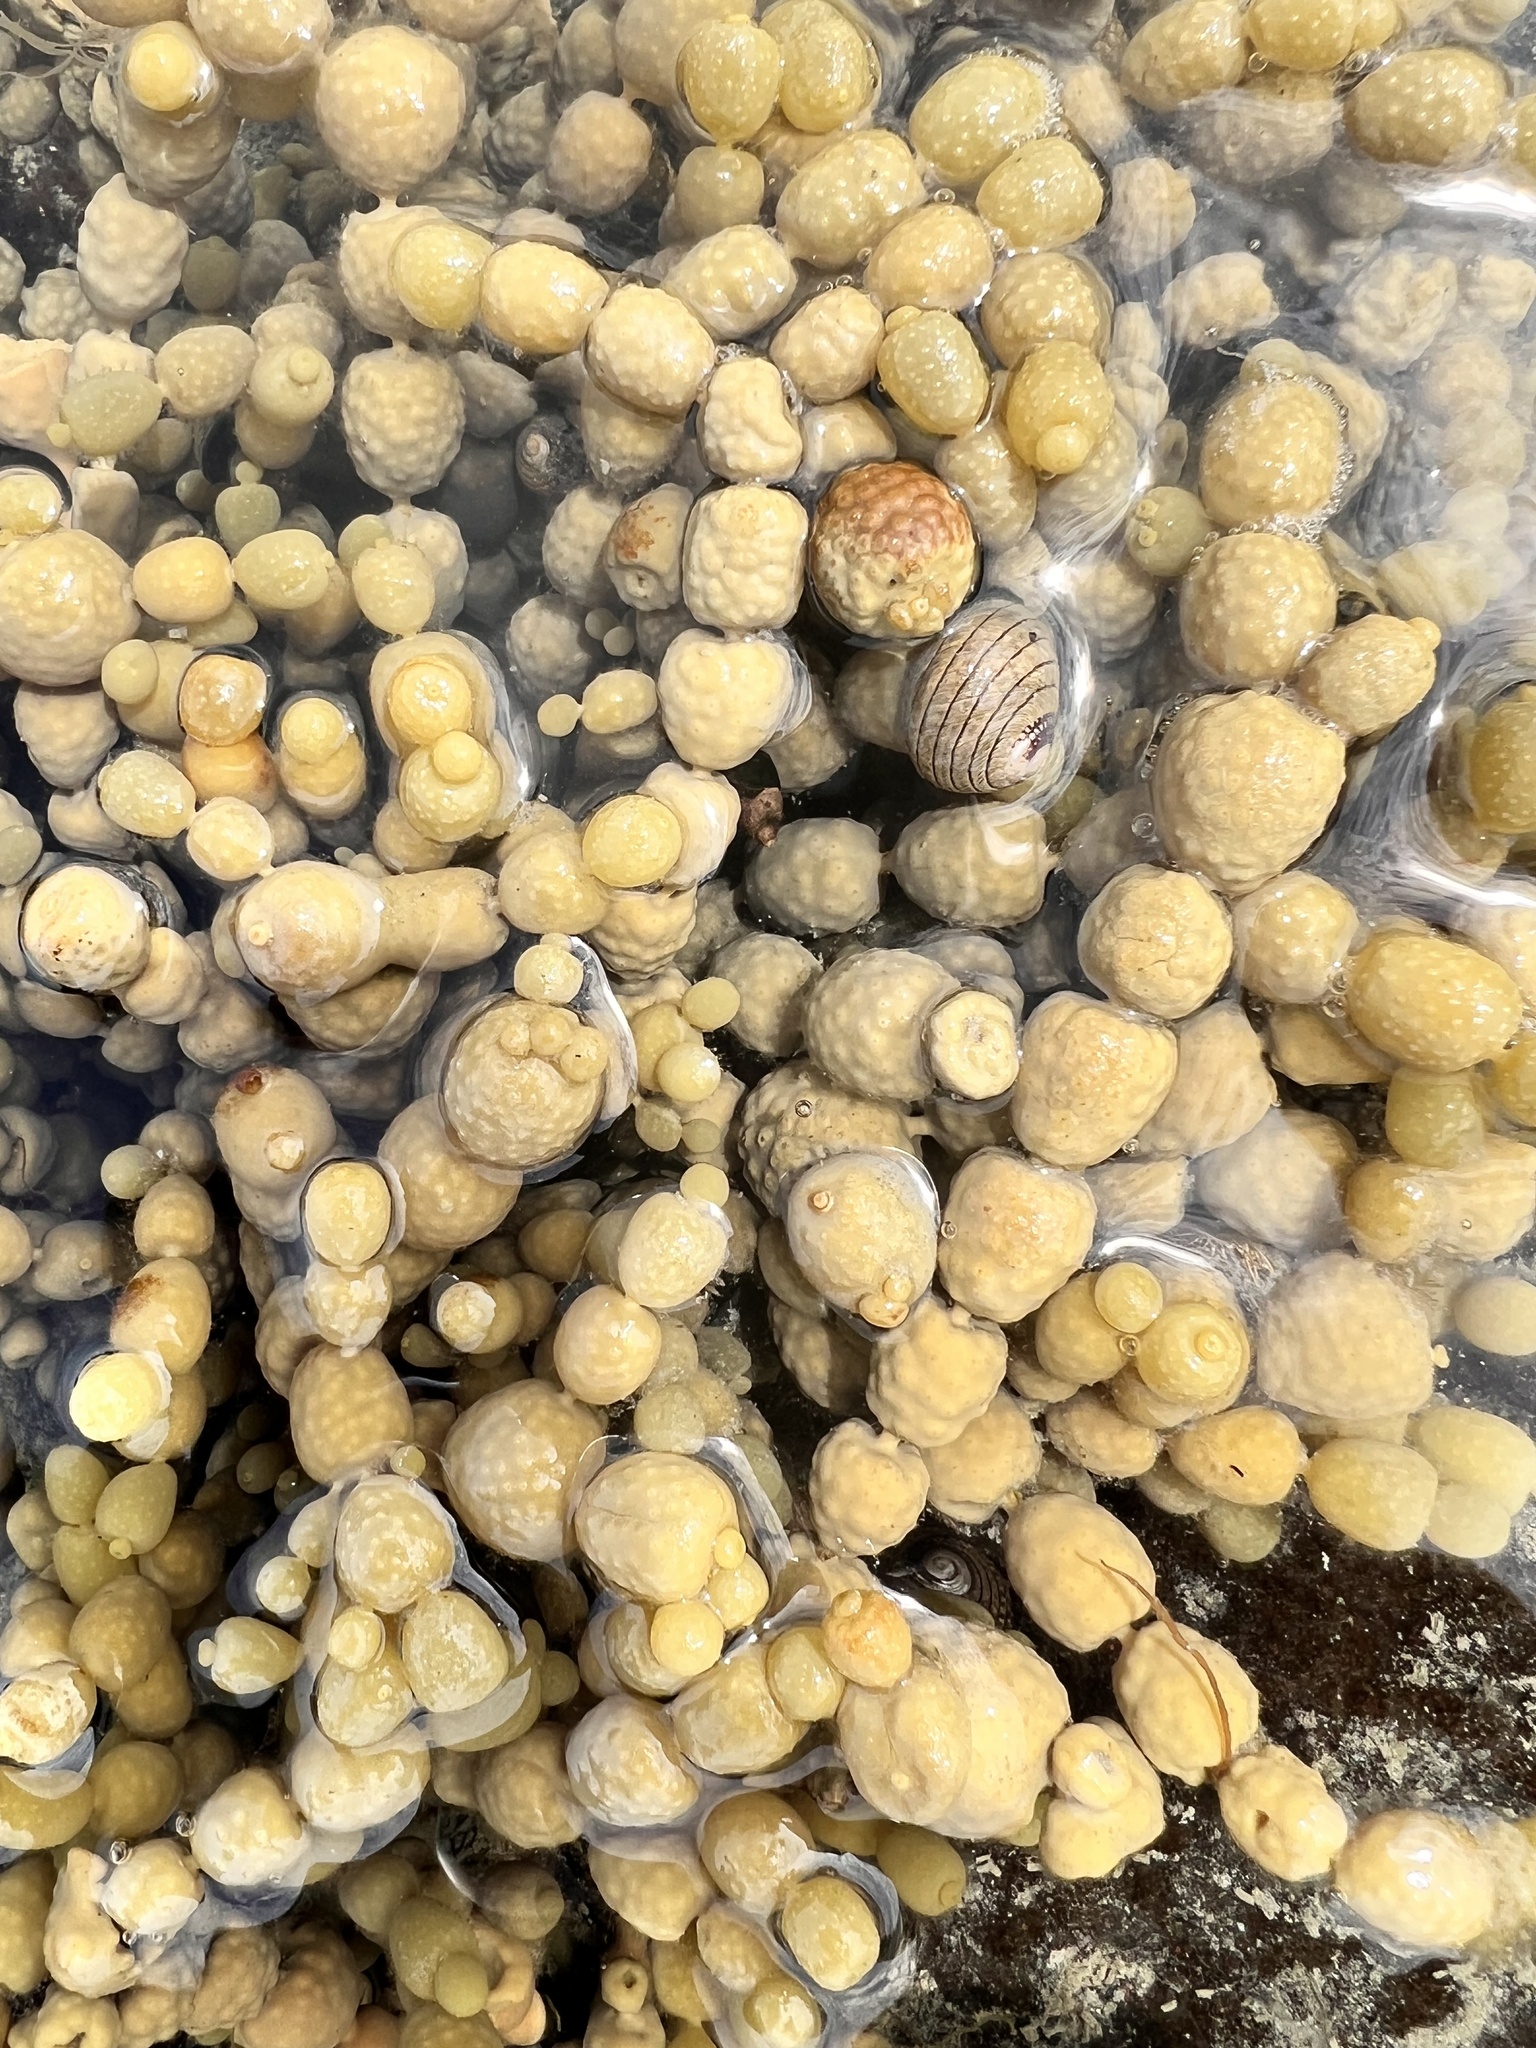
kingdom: Chromista
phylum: Ochrophyta
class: Phaeophyceae
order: Fucales
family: Hormosiraceae
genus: Hormosira
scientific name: Hormosira banksii
